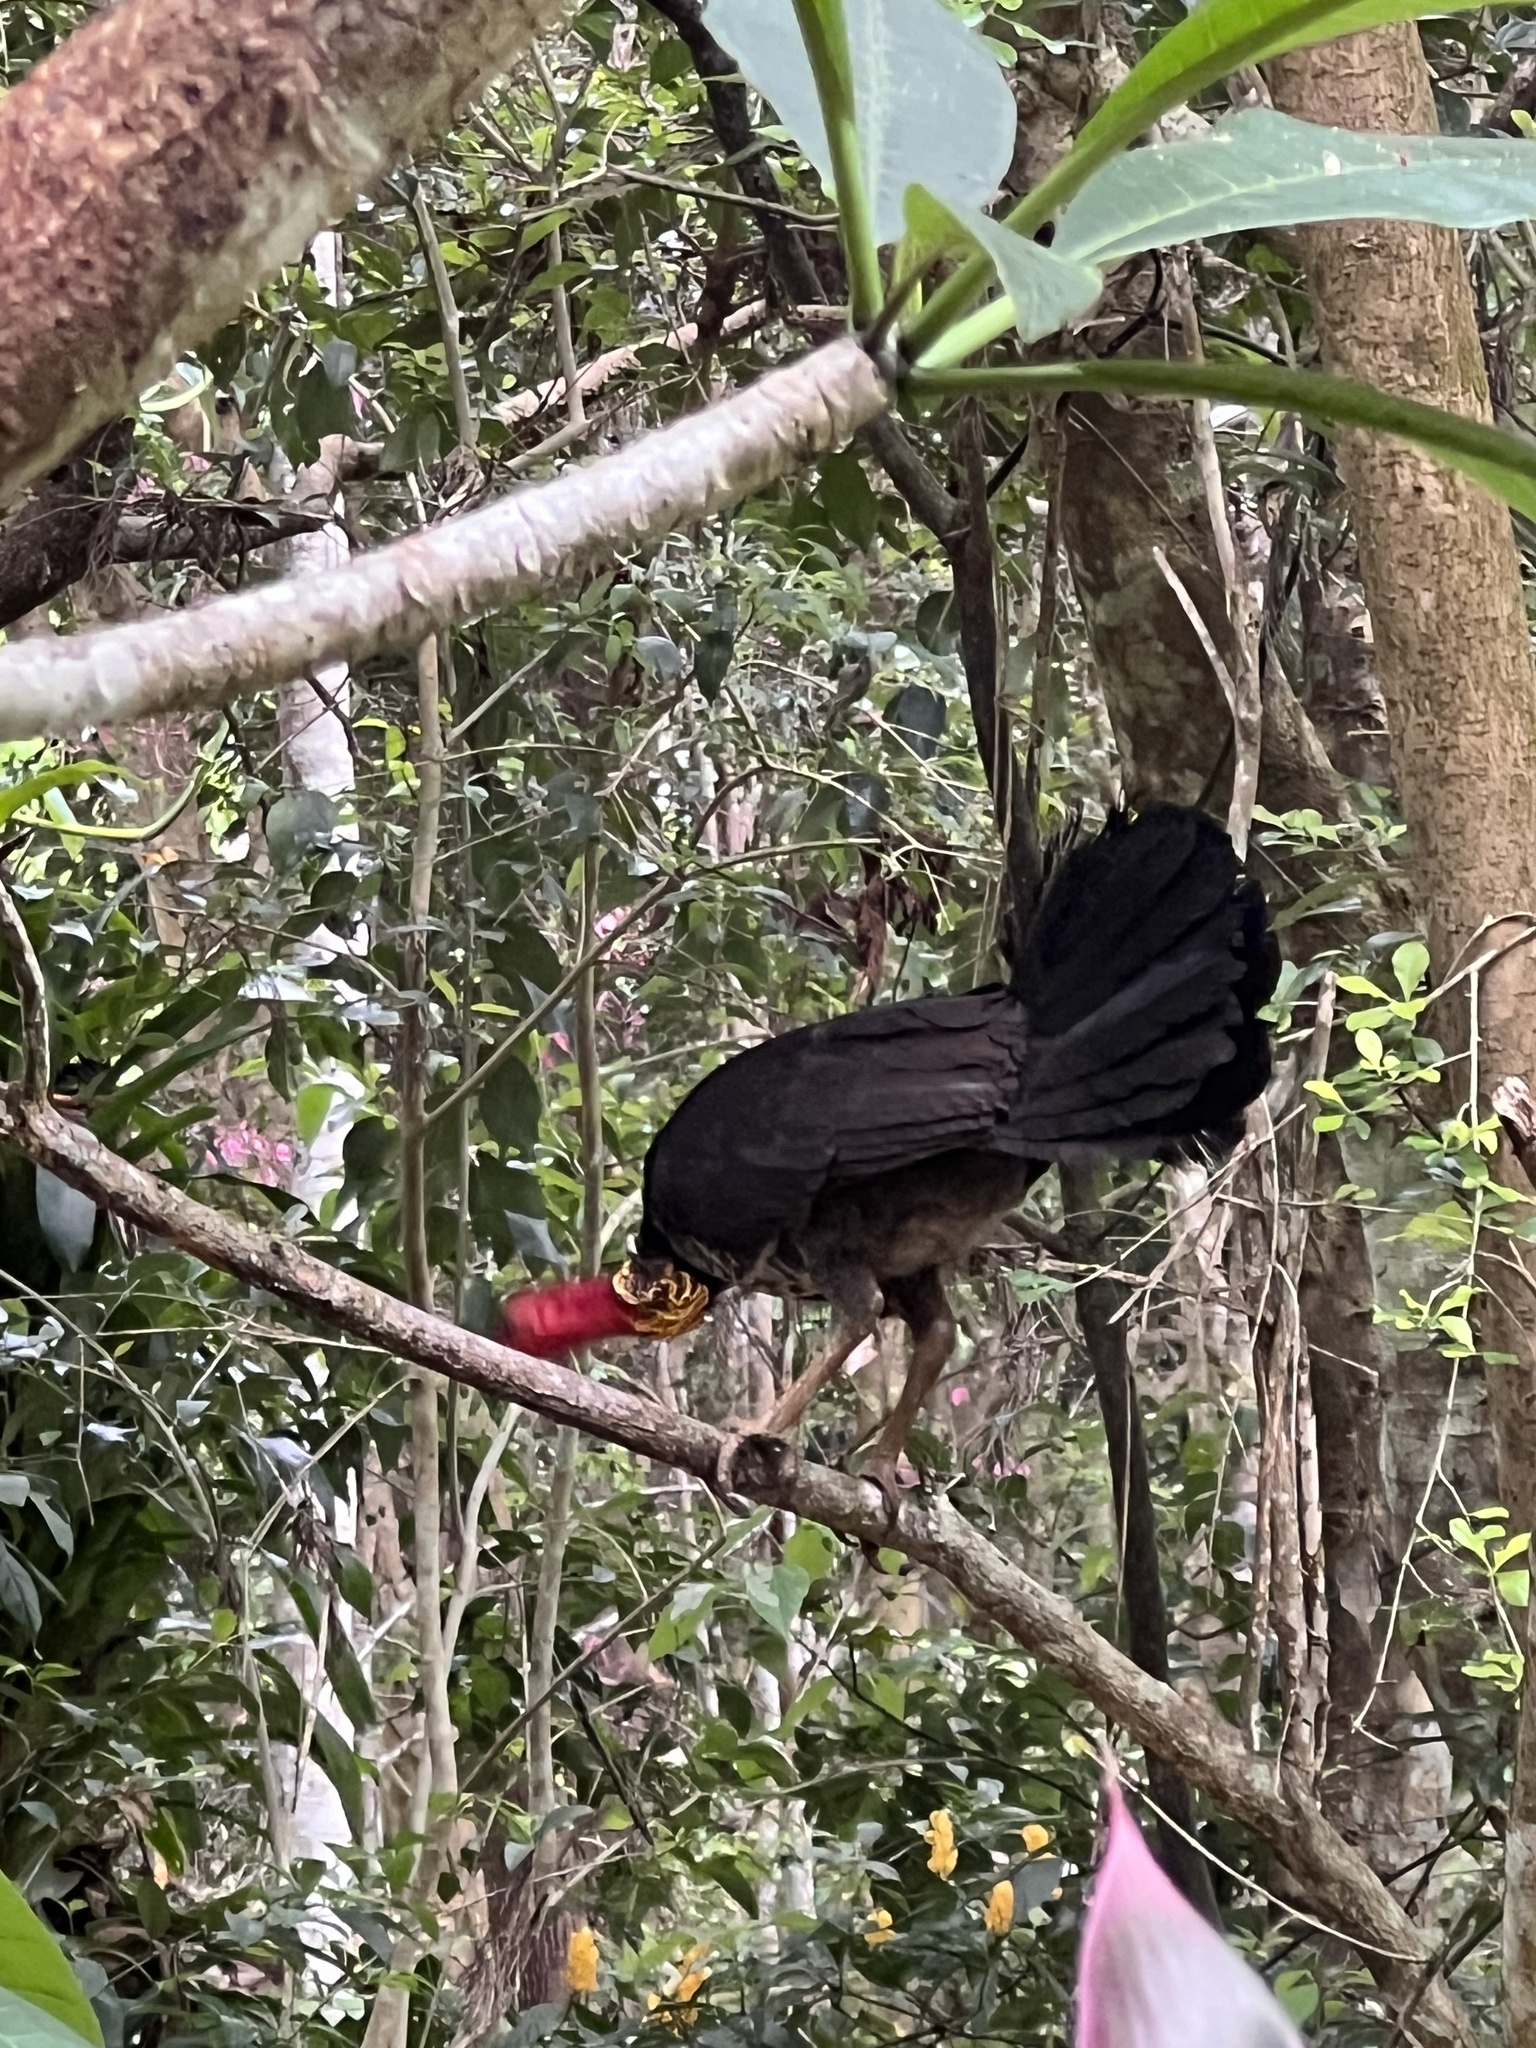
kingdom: Animalia
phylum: Chordata
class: Aves
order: Galliformes
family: Megapodiidae
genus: Alectura
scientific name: Alectura lathami
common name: Australian brushturkey
